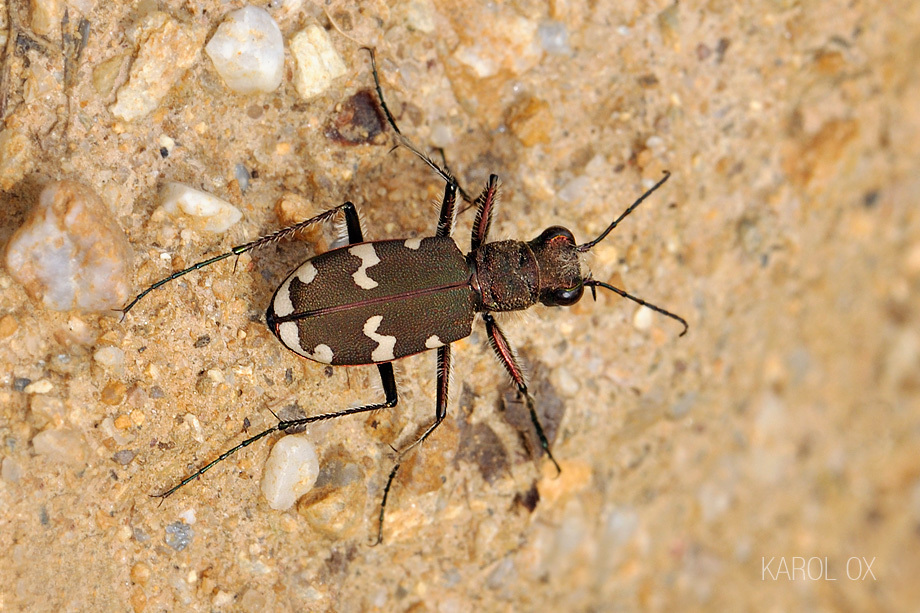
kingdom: Animalia
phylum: Arthropoda
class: Insecta
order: Coleoptera
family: Carabidae
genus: Cicindela
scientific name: Cicindela sylvicola
